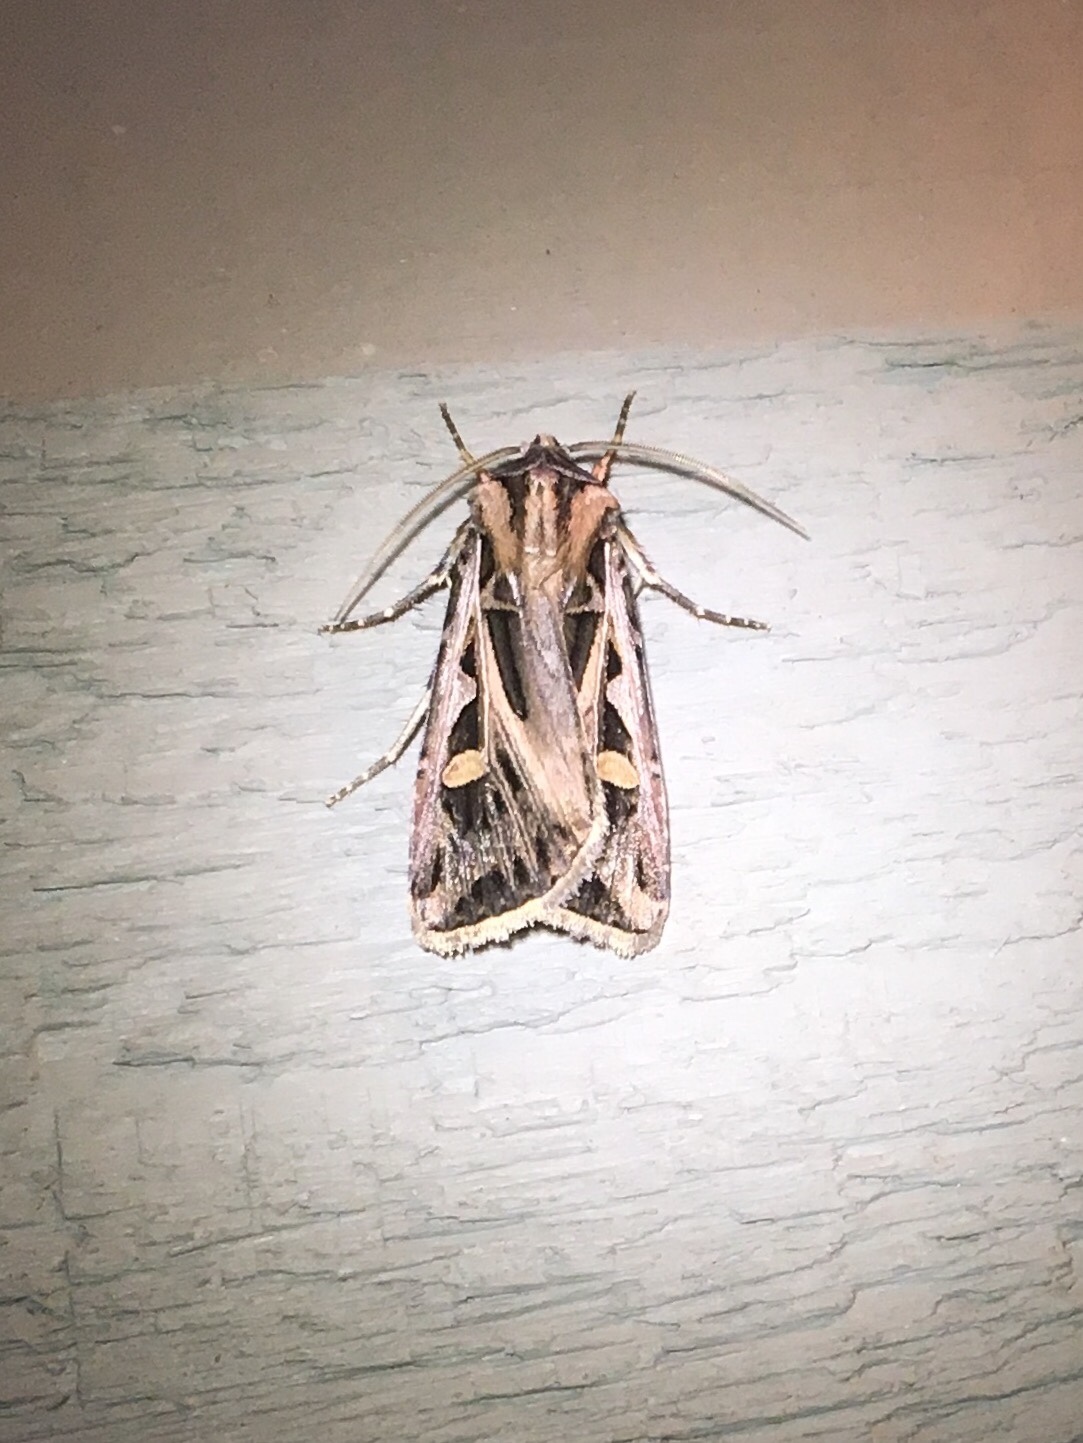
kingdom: Animalia
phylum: Arthropoda
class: Insecta
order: Lepidoptera
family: Noctuidae
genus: Feltia
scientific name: Feltia jaculifera
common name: Dingy cutworm moth
